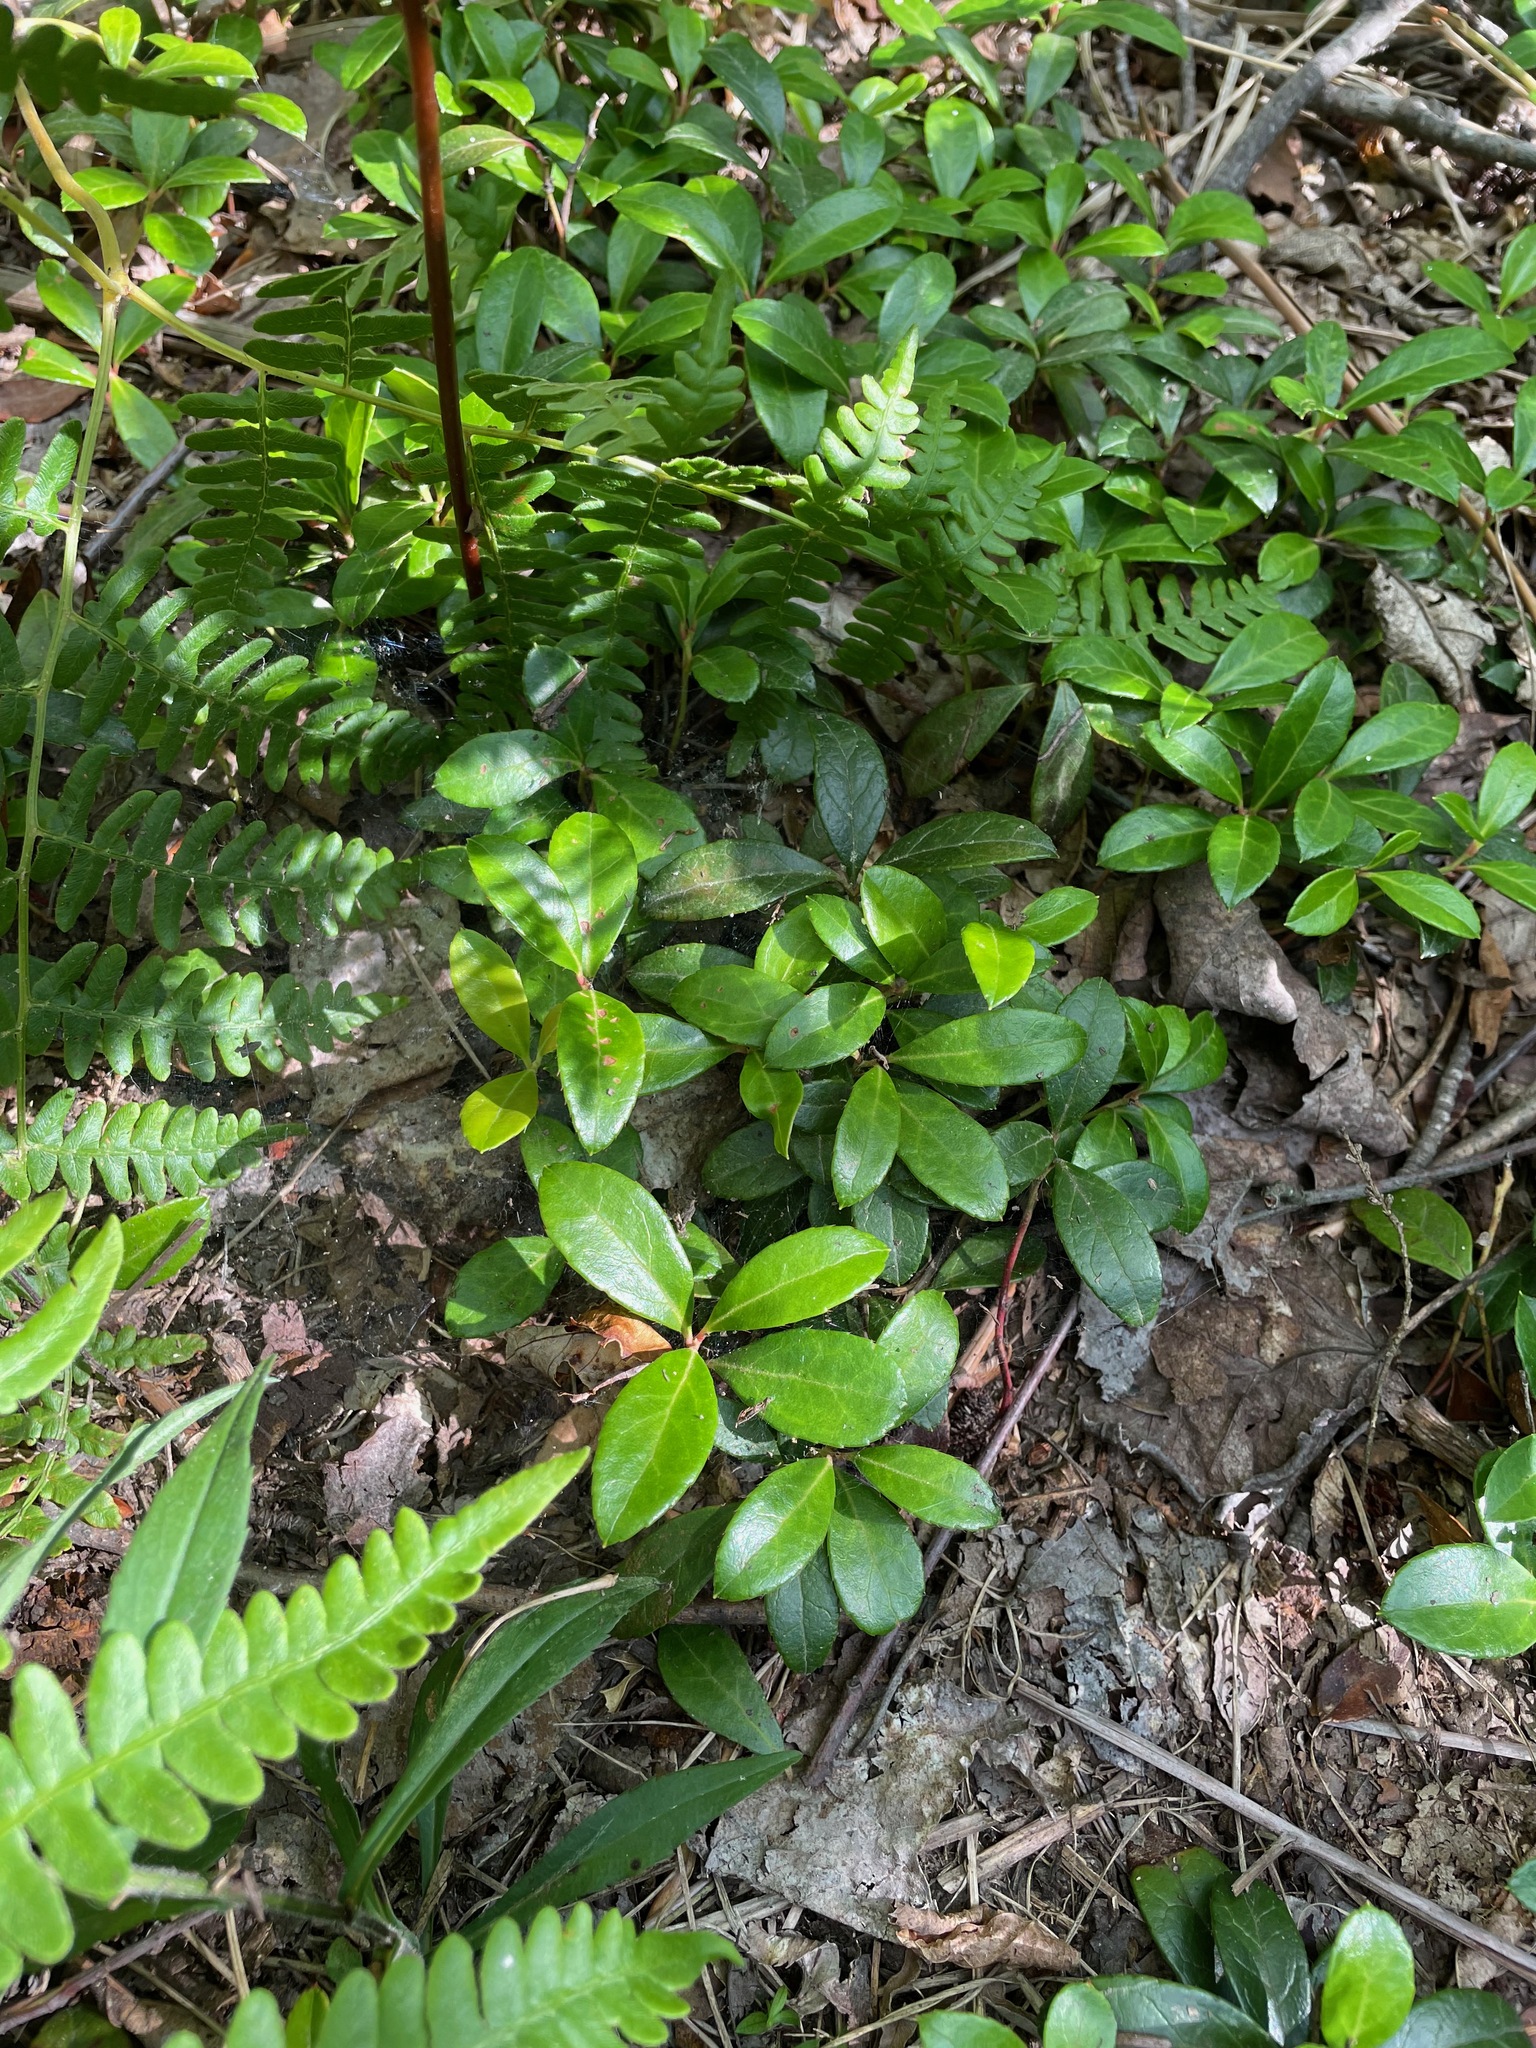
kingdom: Plantae
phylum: Tracheophyta
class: Magnoliopsida
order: Ericales
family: Ericaceae
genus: Gaultheria
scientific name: Gaultheria procumbens
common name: Checkerberry
